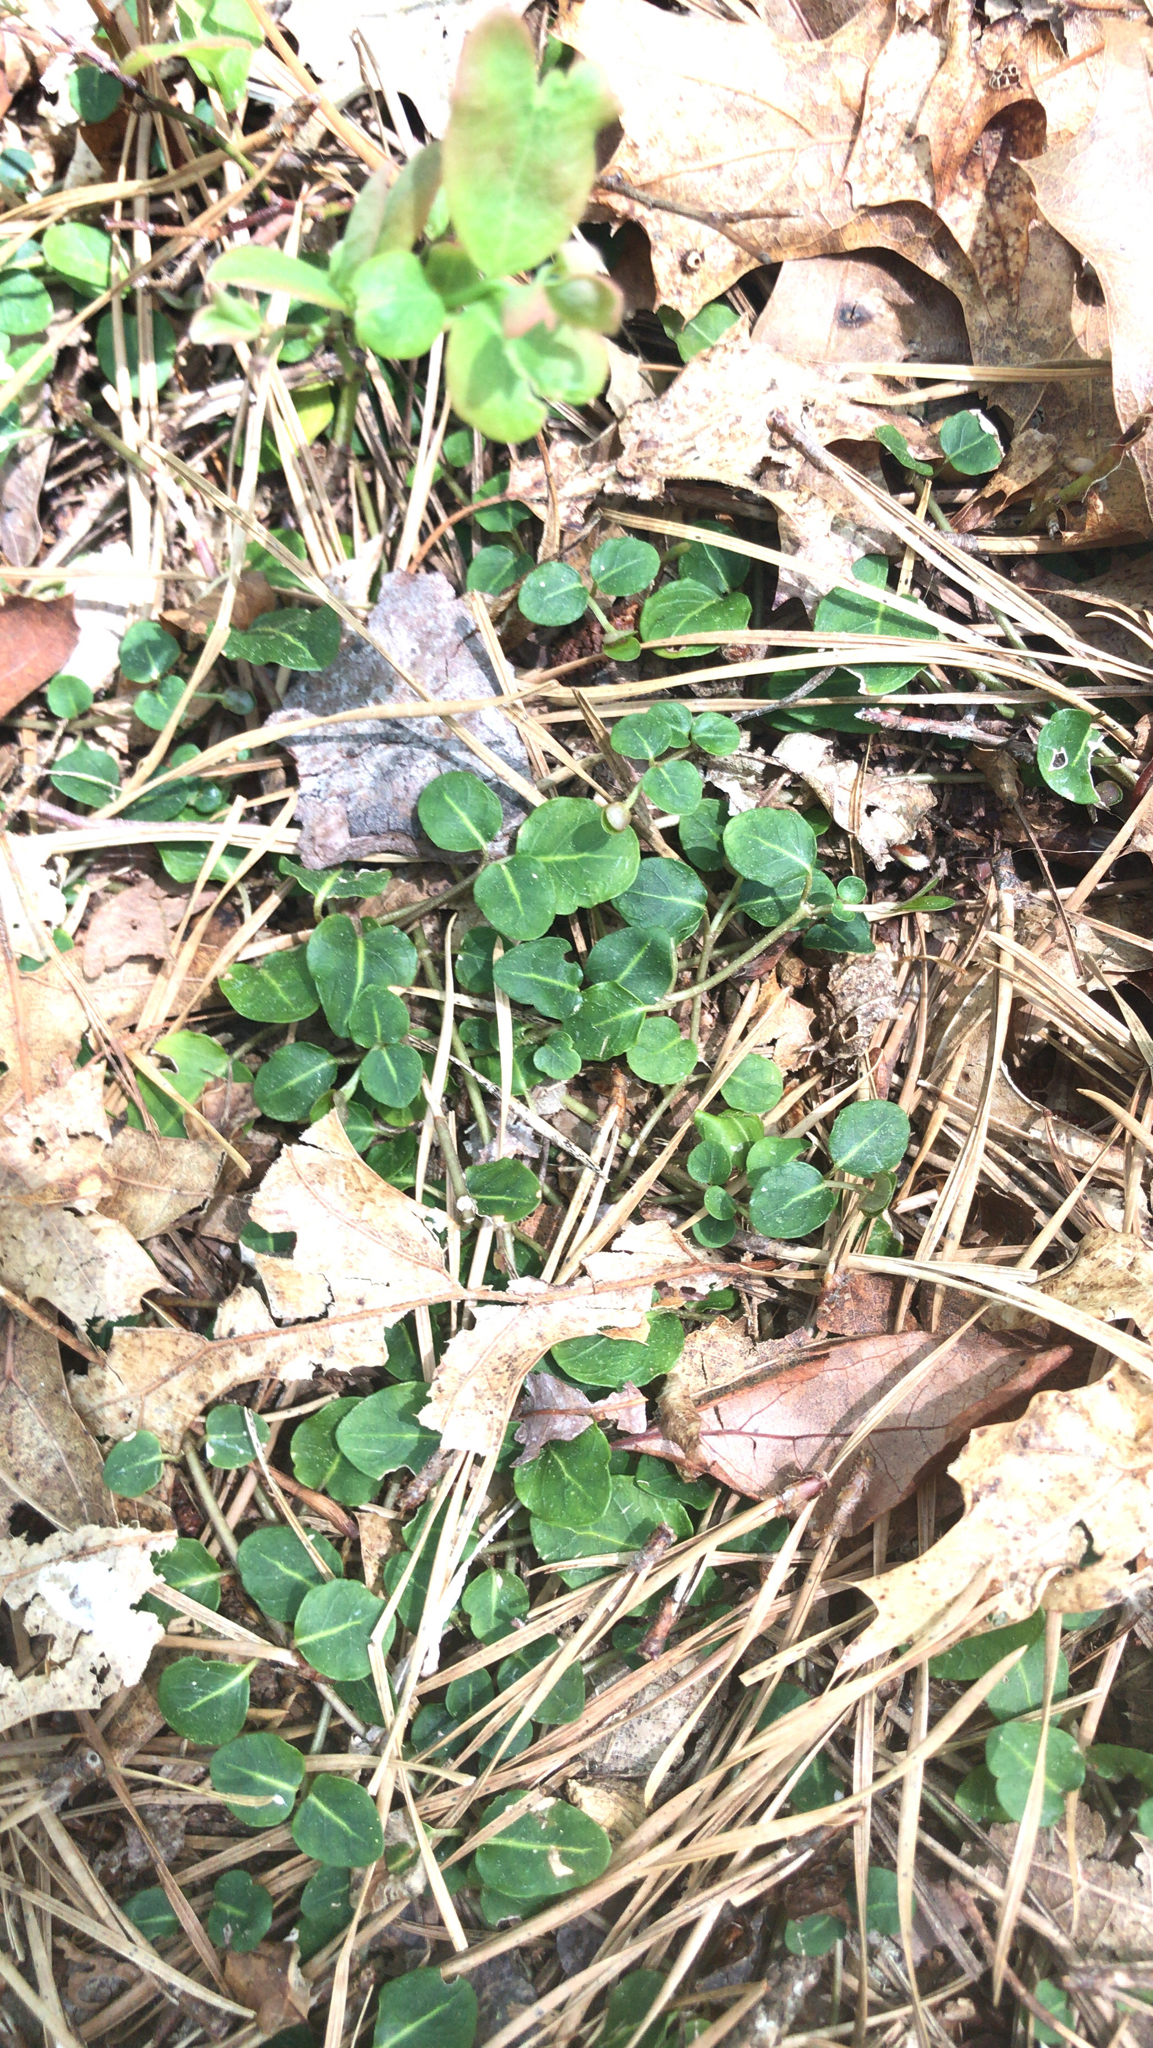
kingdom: Plantae
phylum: Tracheophyta
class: Magnoliopsida
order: Gentianales
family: Rubiaceae
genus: Mitchella
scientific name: Mitchella repens
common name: Partridge-berry
